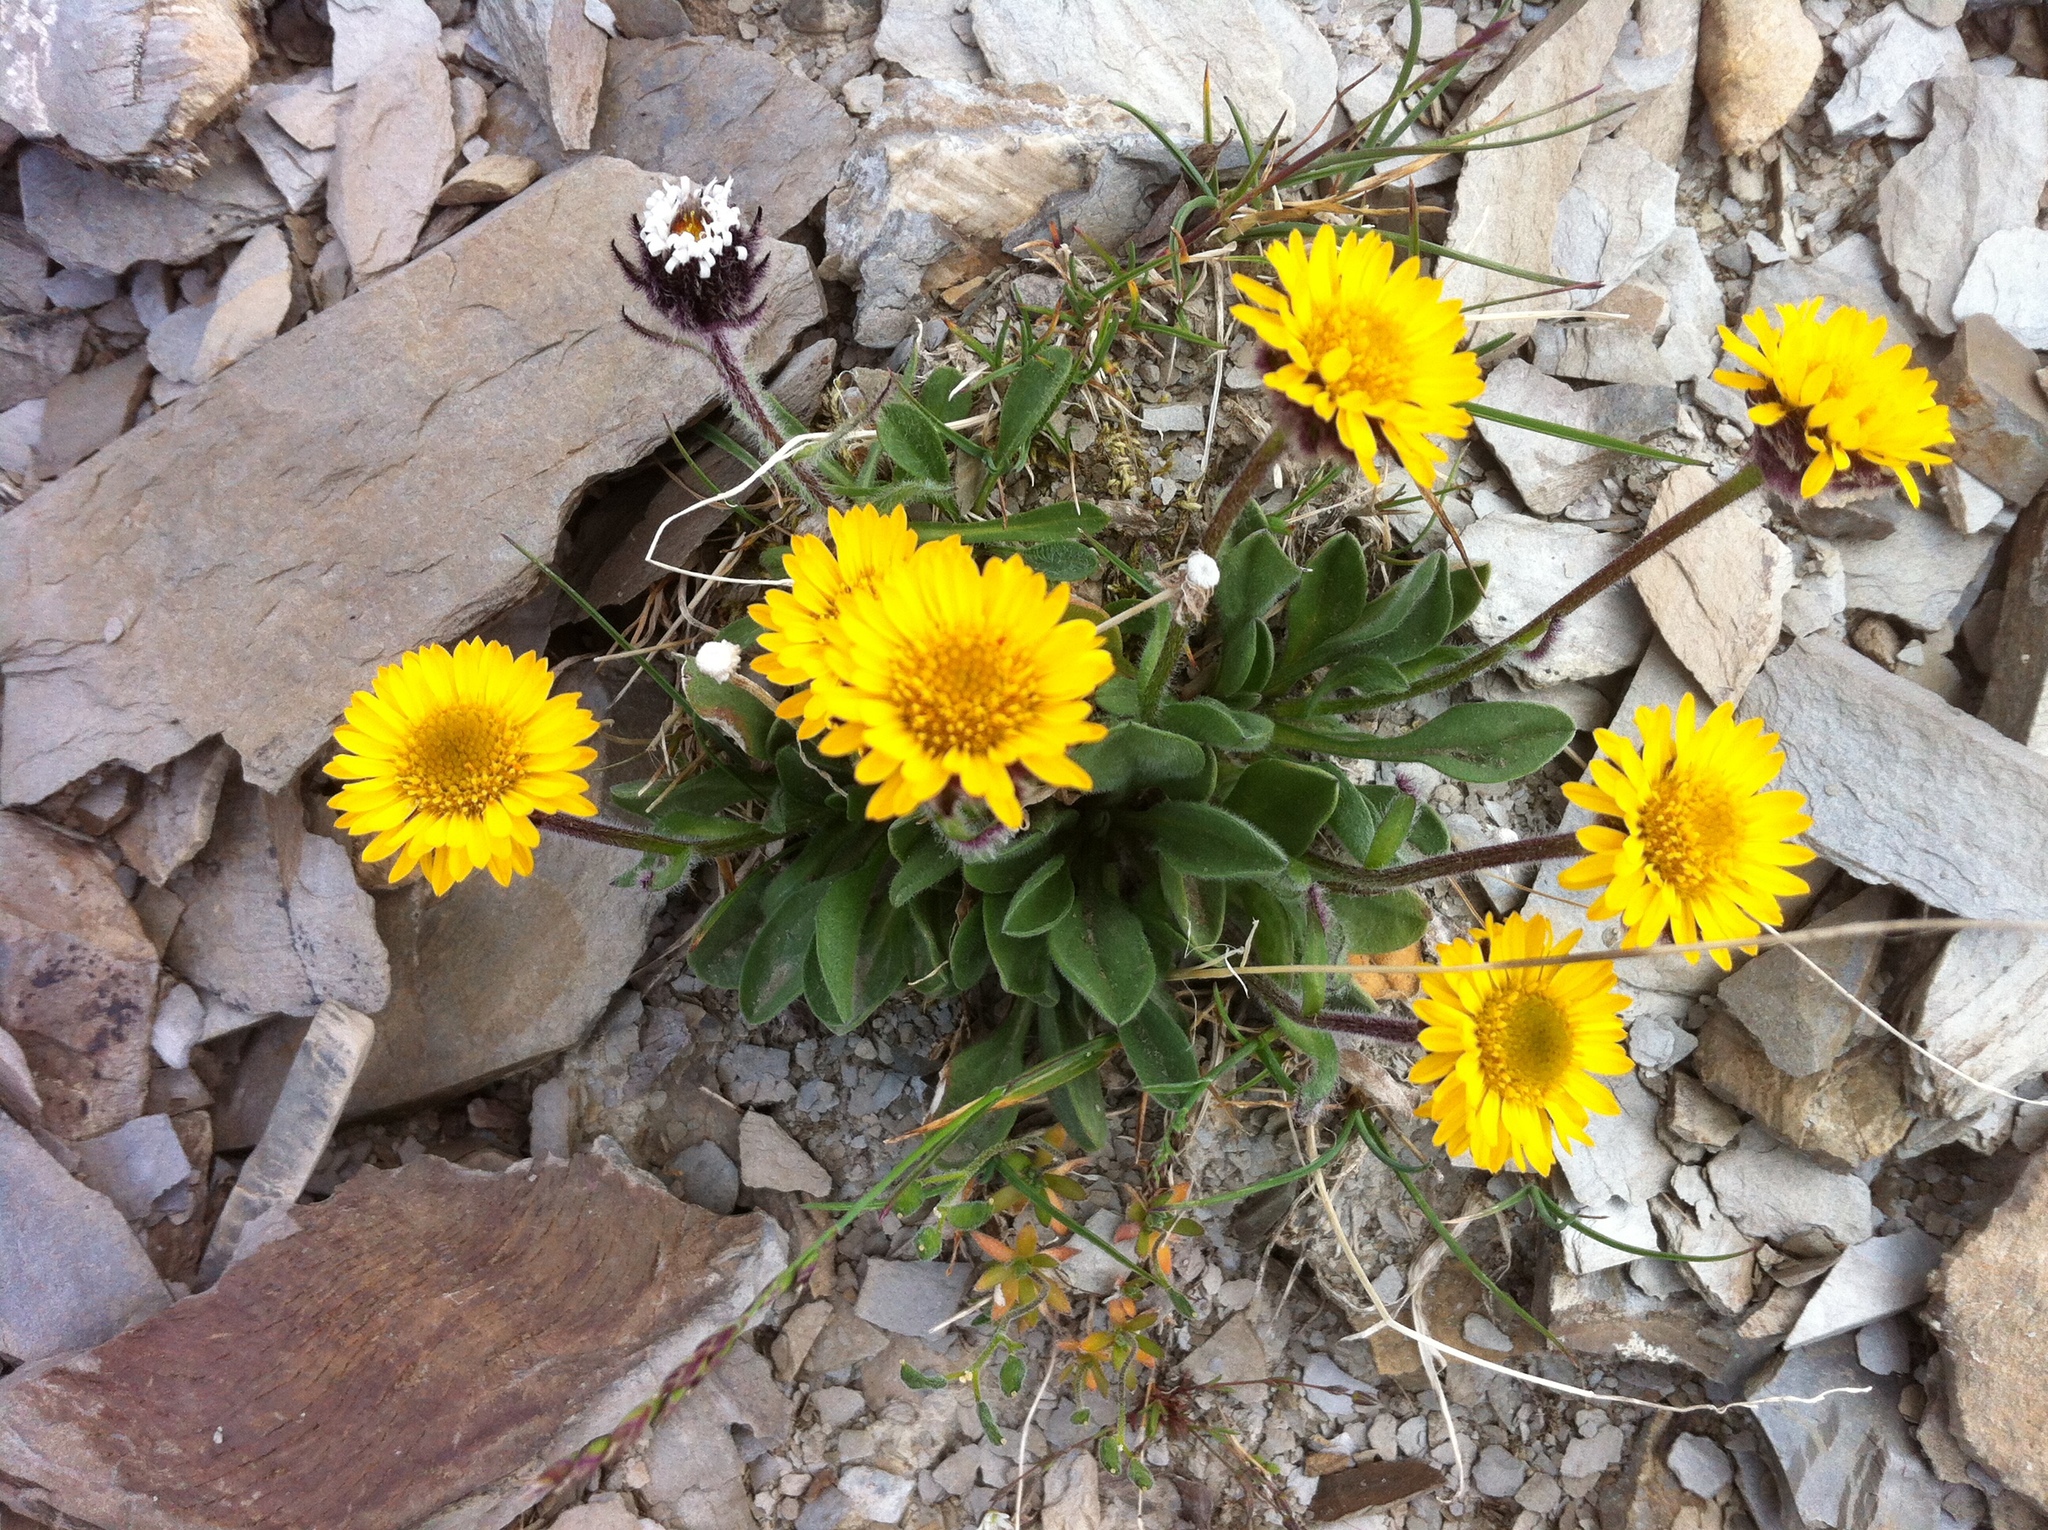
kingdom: Plantae
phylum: Tracheophyta
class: Magnoliopsida
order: Asterales
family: Asteraceae
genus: Erigeron
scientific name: Erigeron aureus
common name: Alpine yellow fleabane
